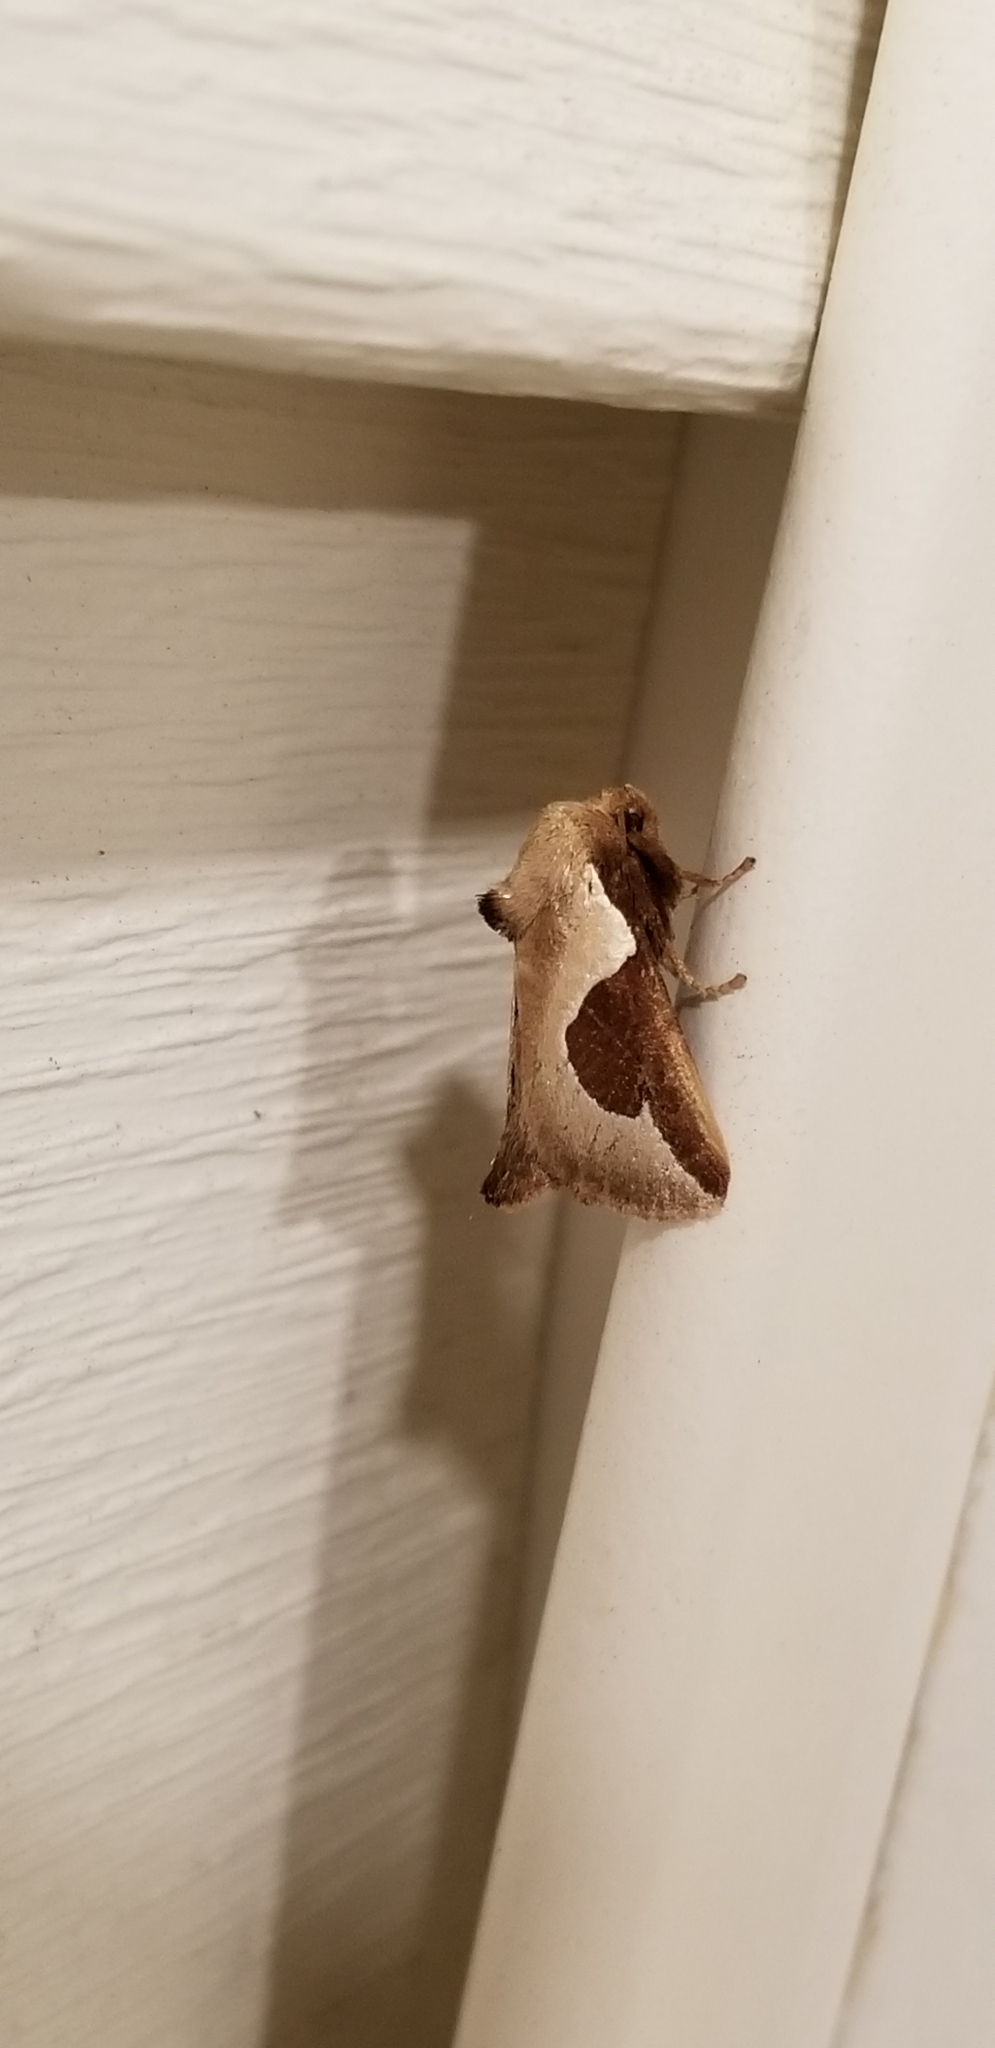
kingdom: Animalia
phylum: Arthropoda
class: Insecta
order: Lepidoptera
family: Limacodidae
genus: Prolimacodes
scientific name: Prolimacodes badia
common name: Skiff moth
